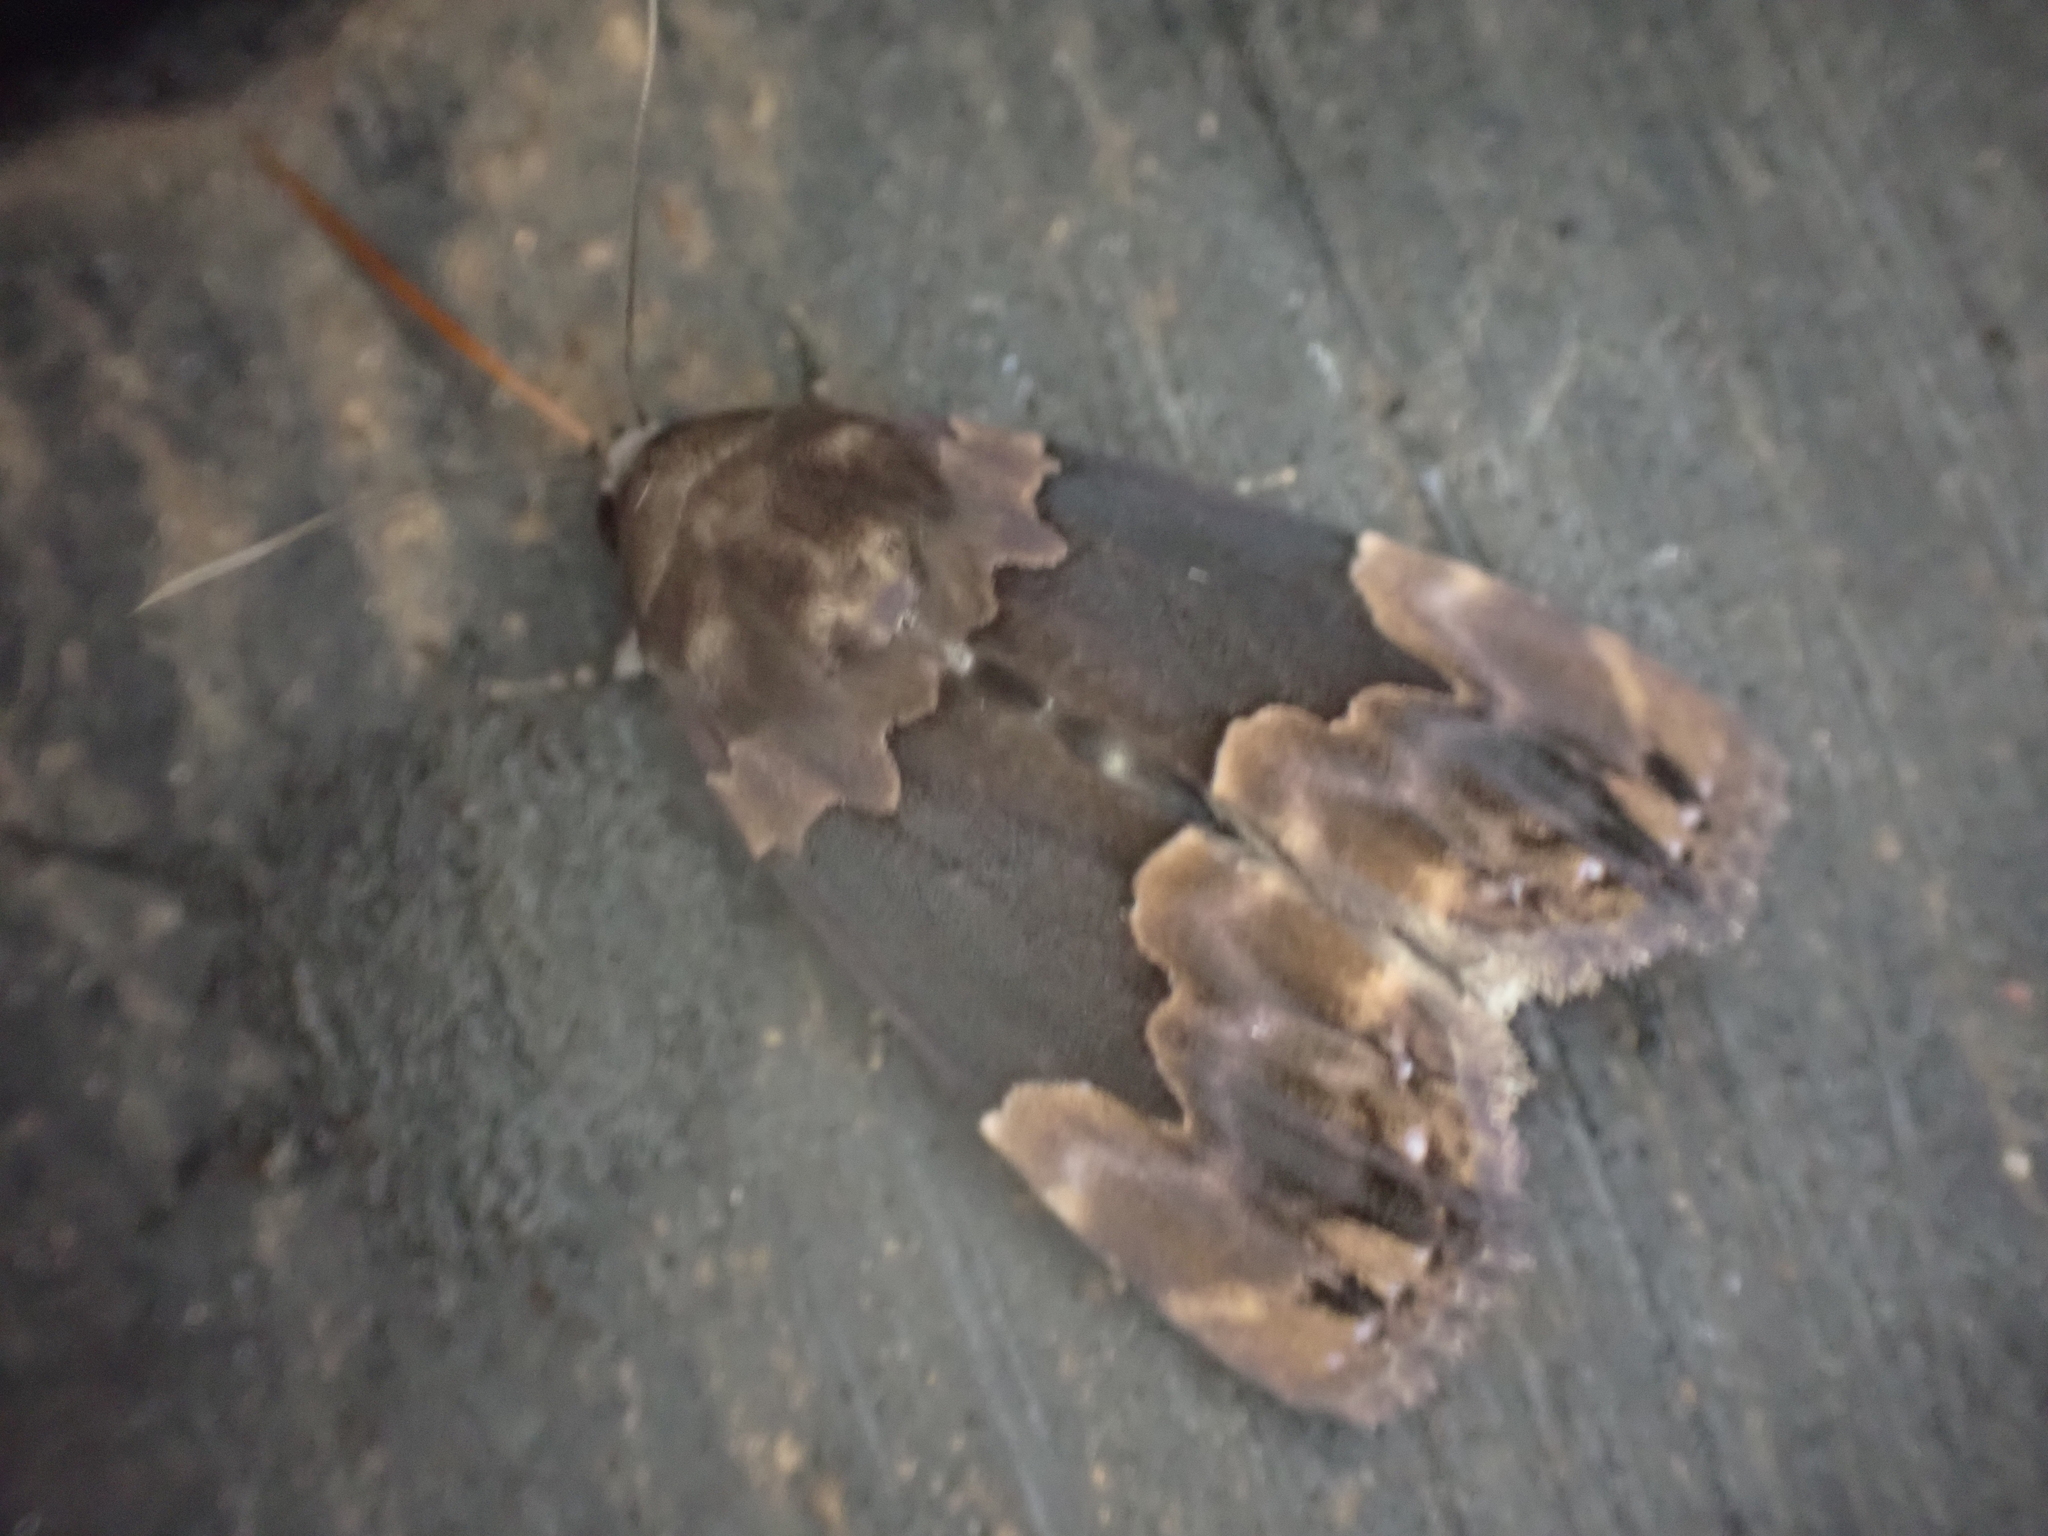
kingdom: Animalia
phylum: Arthropoda
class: Insecta
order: Lepidoptera
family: Erebidae
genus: Dinumma
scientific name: Dinumma deponens
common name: Purplish moth
